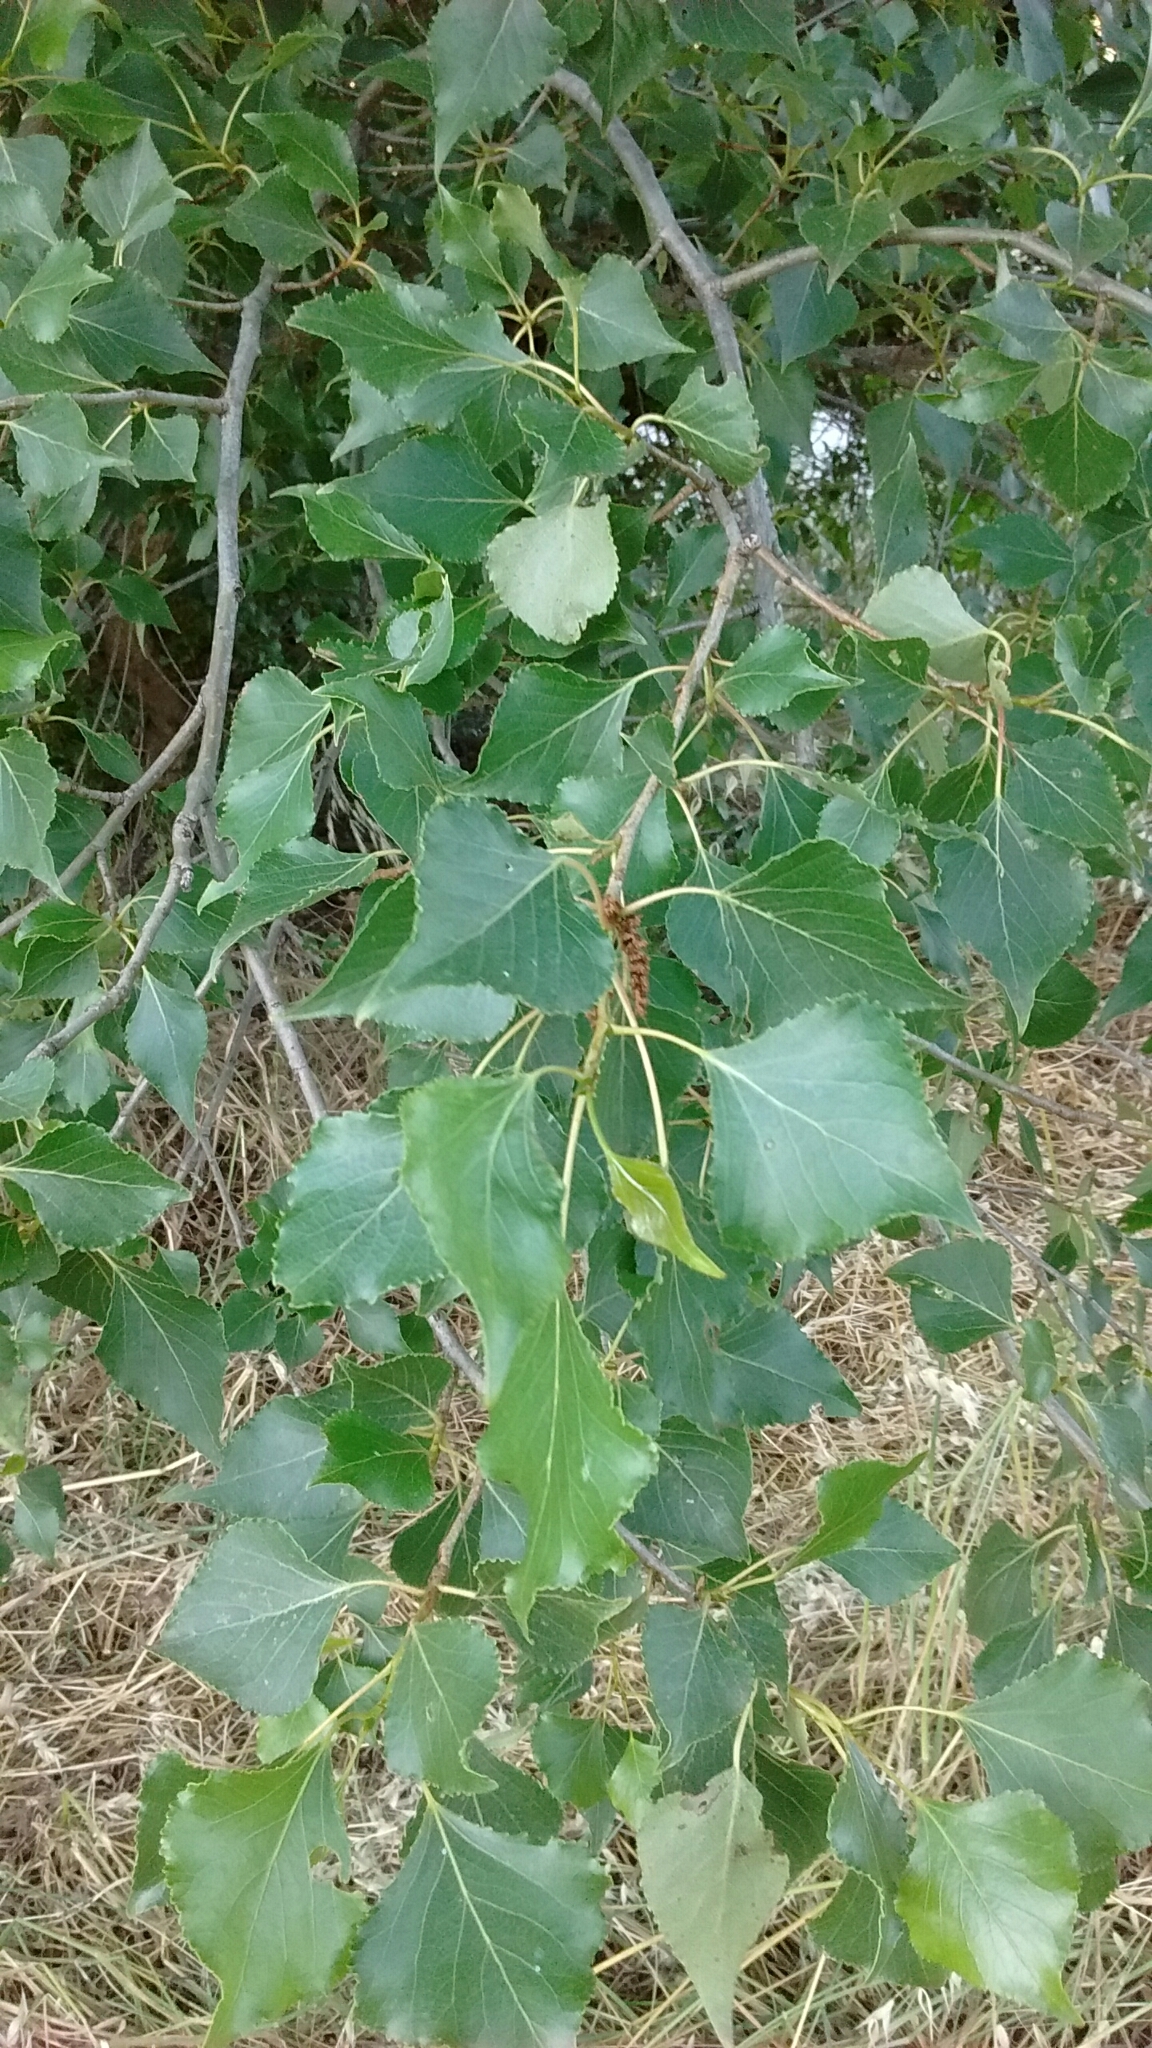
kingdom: Plantae
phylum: Tracheophyta
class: Magnoliopsida
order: Malpighiales
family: Salicaceae
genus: Populus
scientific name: Populus nigra
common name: Black poplar
